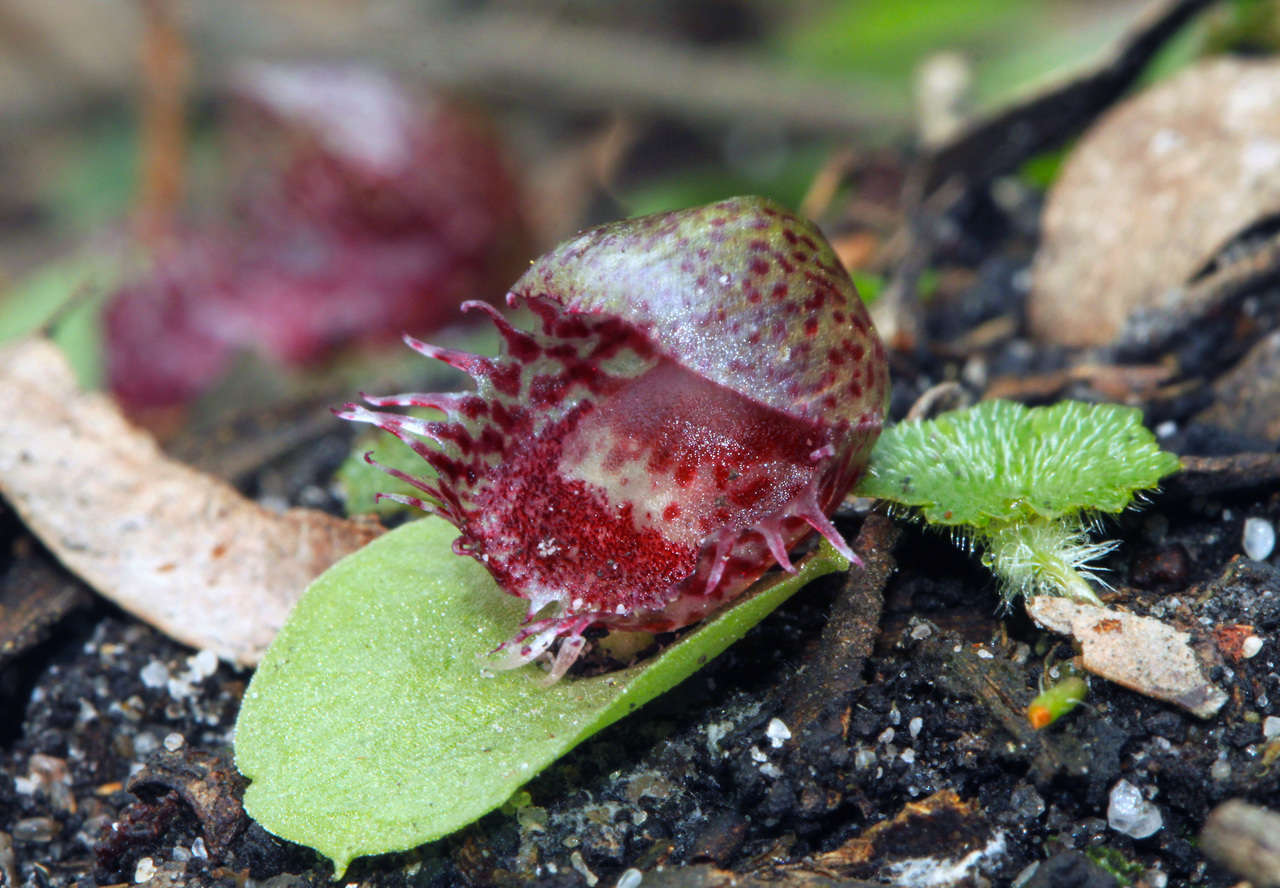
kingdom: Plantae
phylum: Tracheophyta
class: Liliopsida
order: Asparagales
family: Orchidaceae
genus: Corybas
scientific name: Corybas fimbriatus
